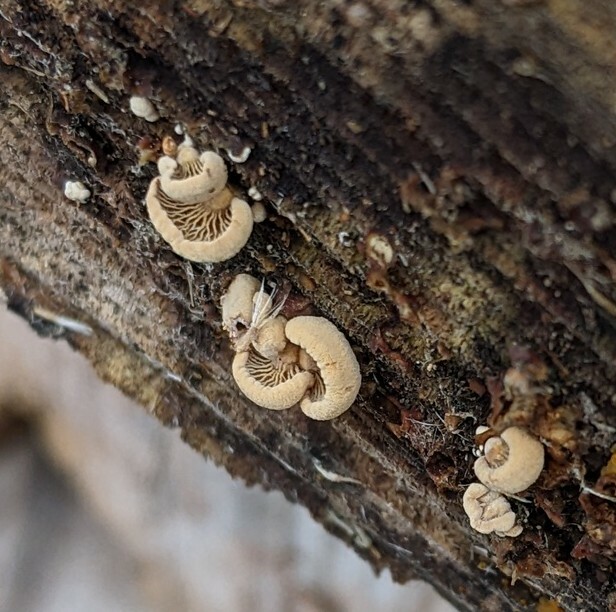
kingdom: Fungi
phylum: Basidiomycota
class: Agaricomycetes
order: Agaricales
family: Mycenaceae
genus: Panellus
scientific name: Panellus stipticus
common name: Bitter oysterling
